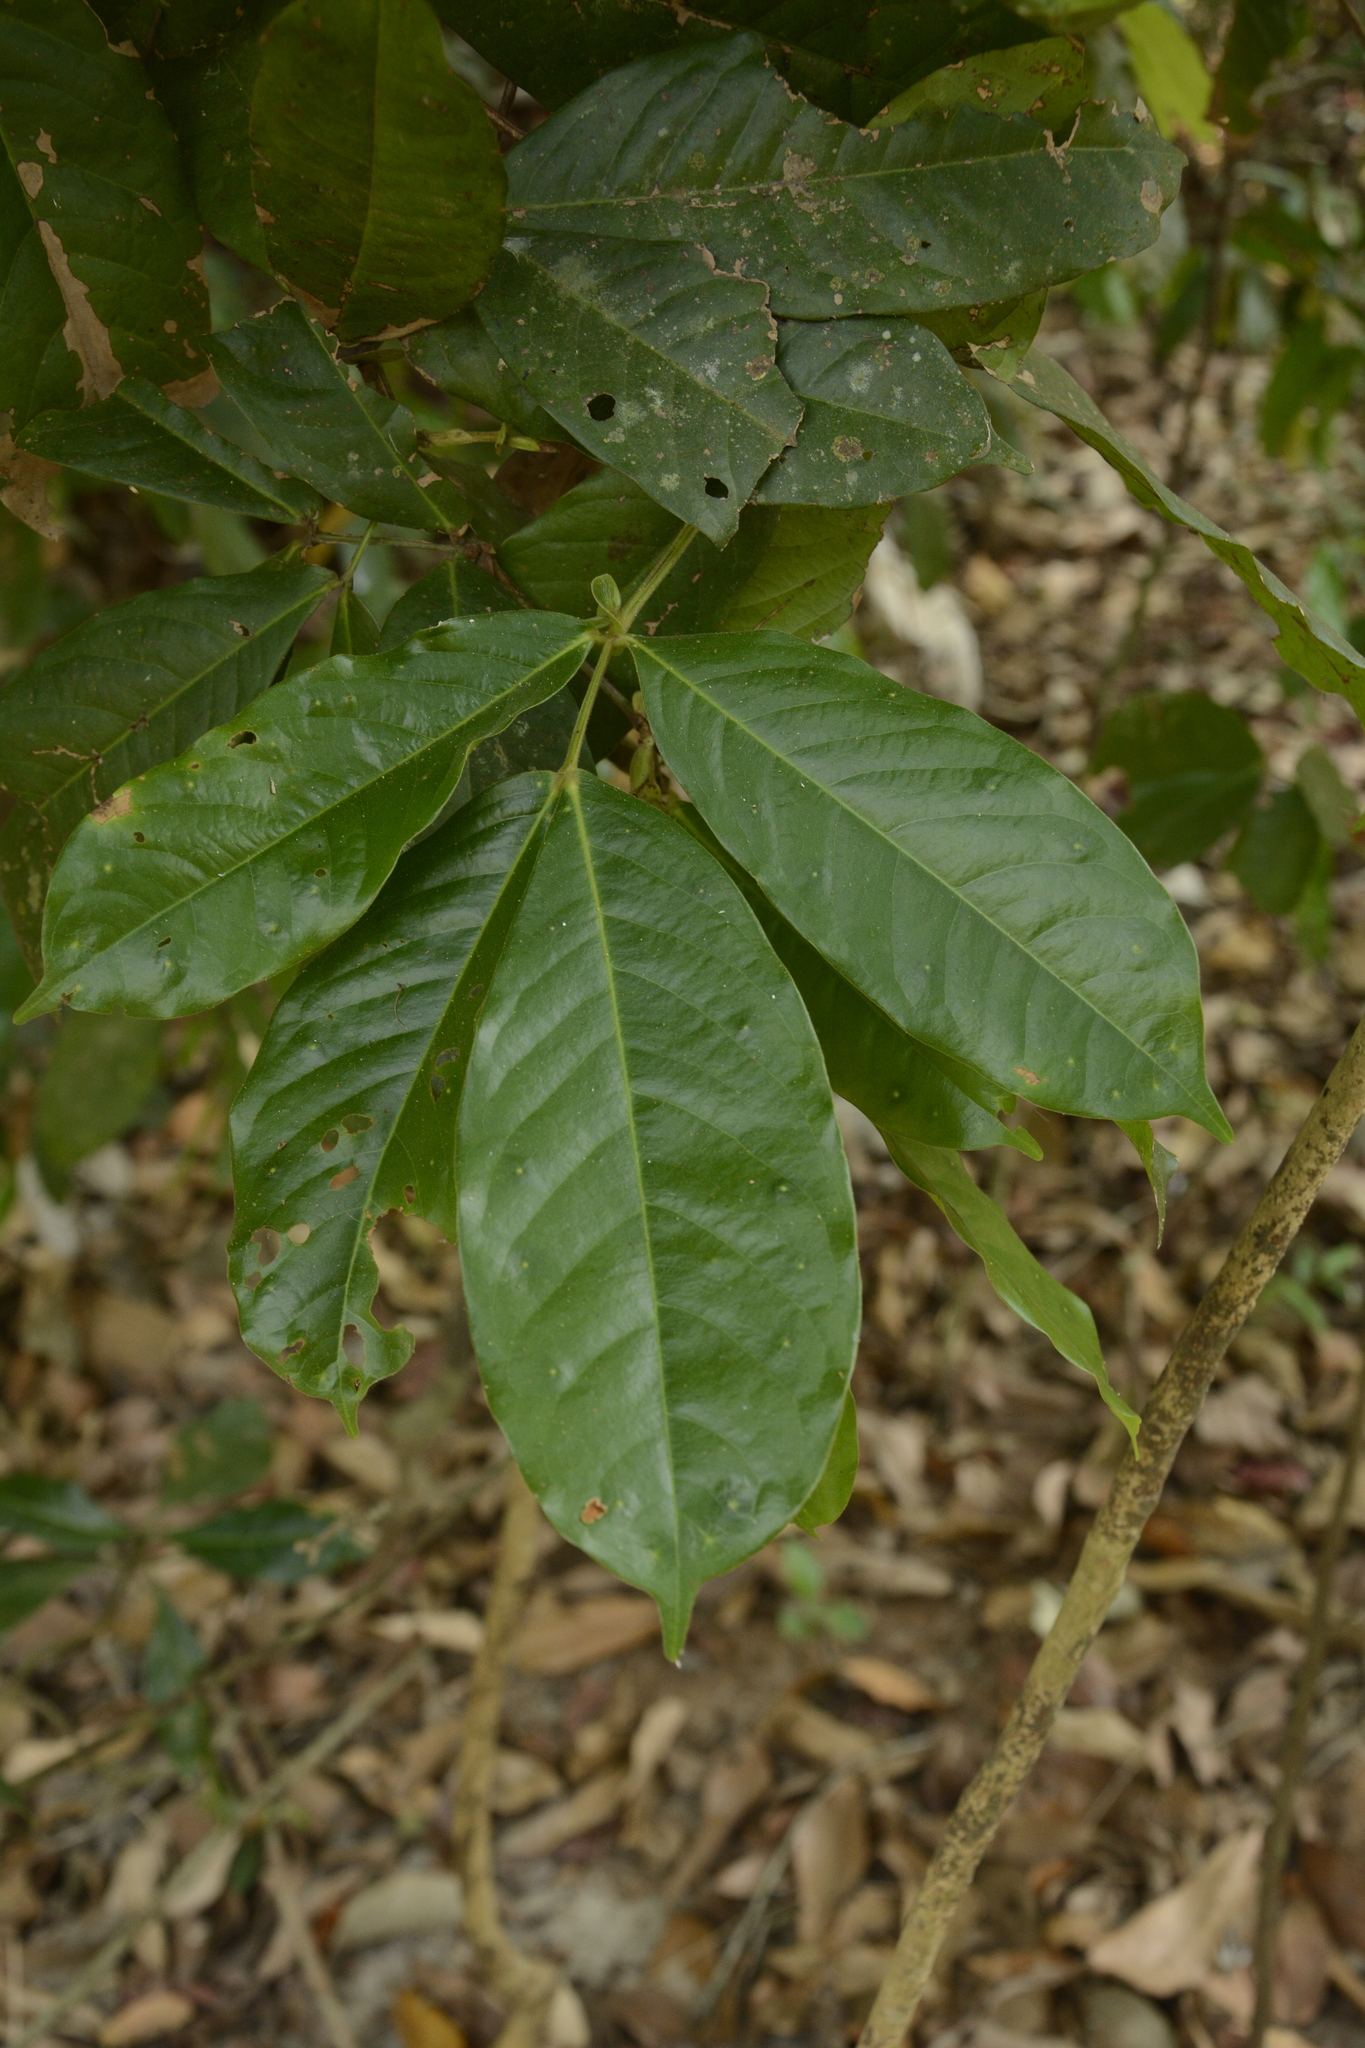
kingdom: Plantae
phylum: Tracheophyta
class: Magnoliopsida
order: Fabales
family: Fabaceae
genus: Humboldtia
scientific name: Humboldtia brunonis
